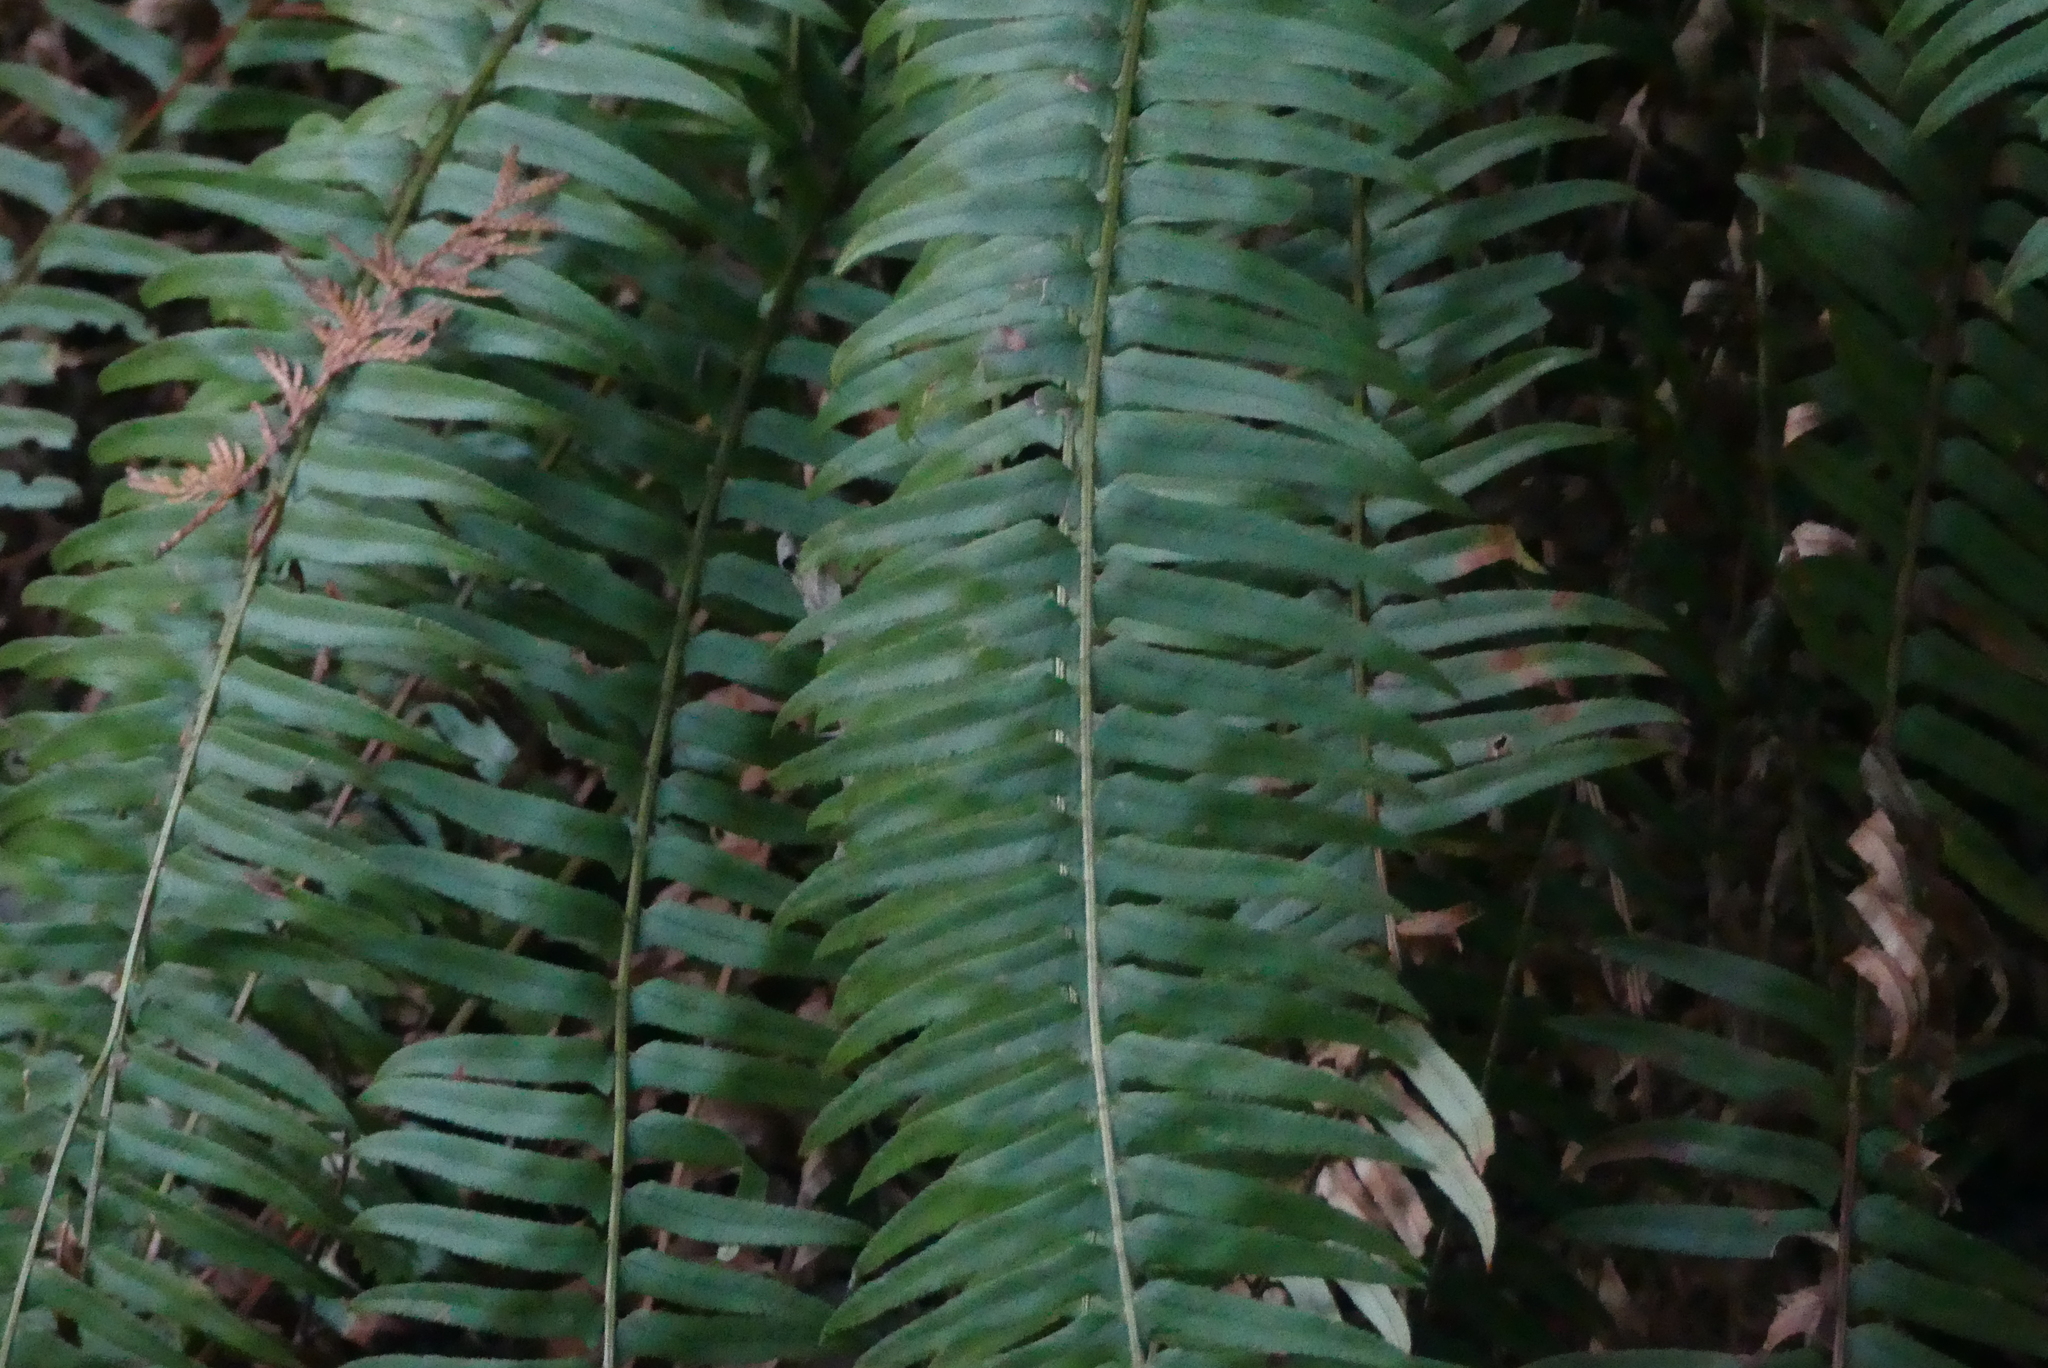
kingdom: Plantae
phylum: Tracheophyta
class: Polypodiopsida
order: Polypodiales
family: Dryopteridaceae
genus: Polystichum
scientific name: Polystichum munitum
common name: Western sword-fern
